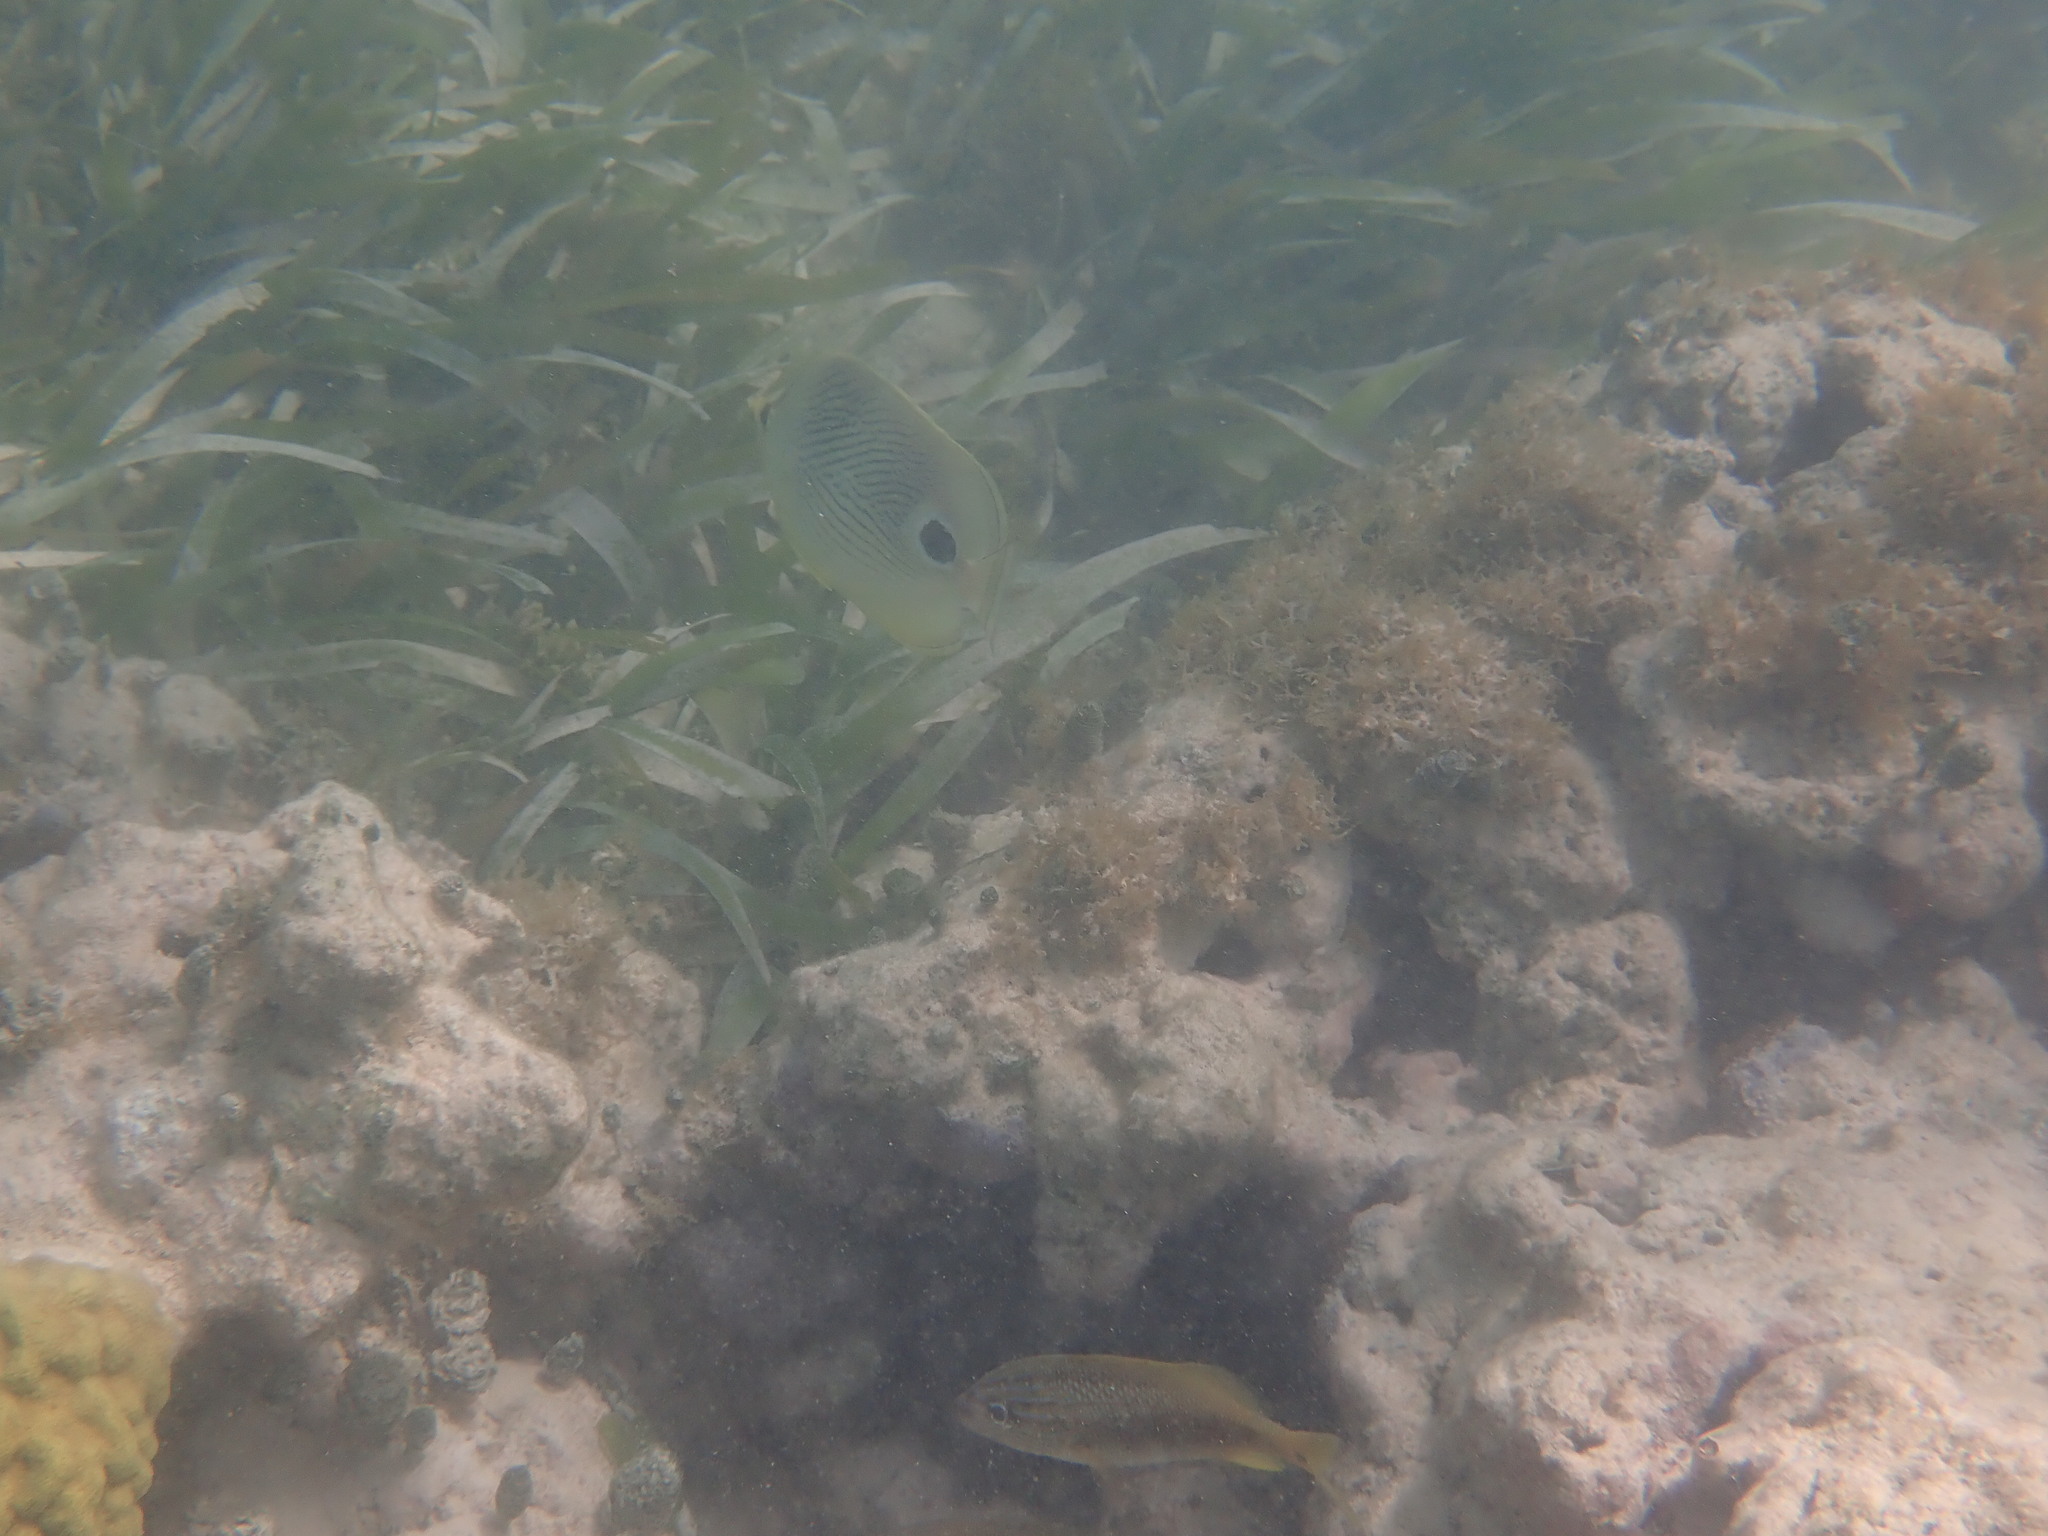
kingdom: Animalia
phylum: Chordata
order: Perciformes
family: Chaetodontidae
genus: Chaetodon
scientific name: Chaetodon capistratus
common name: Kete
